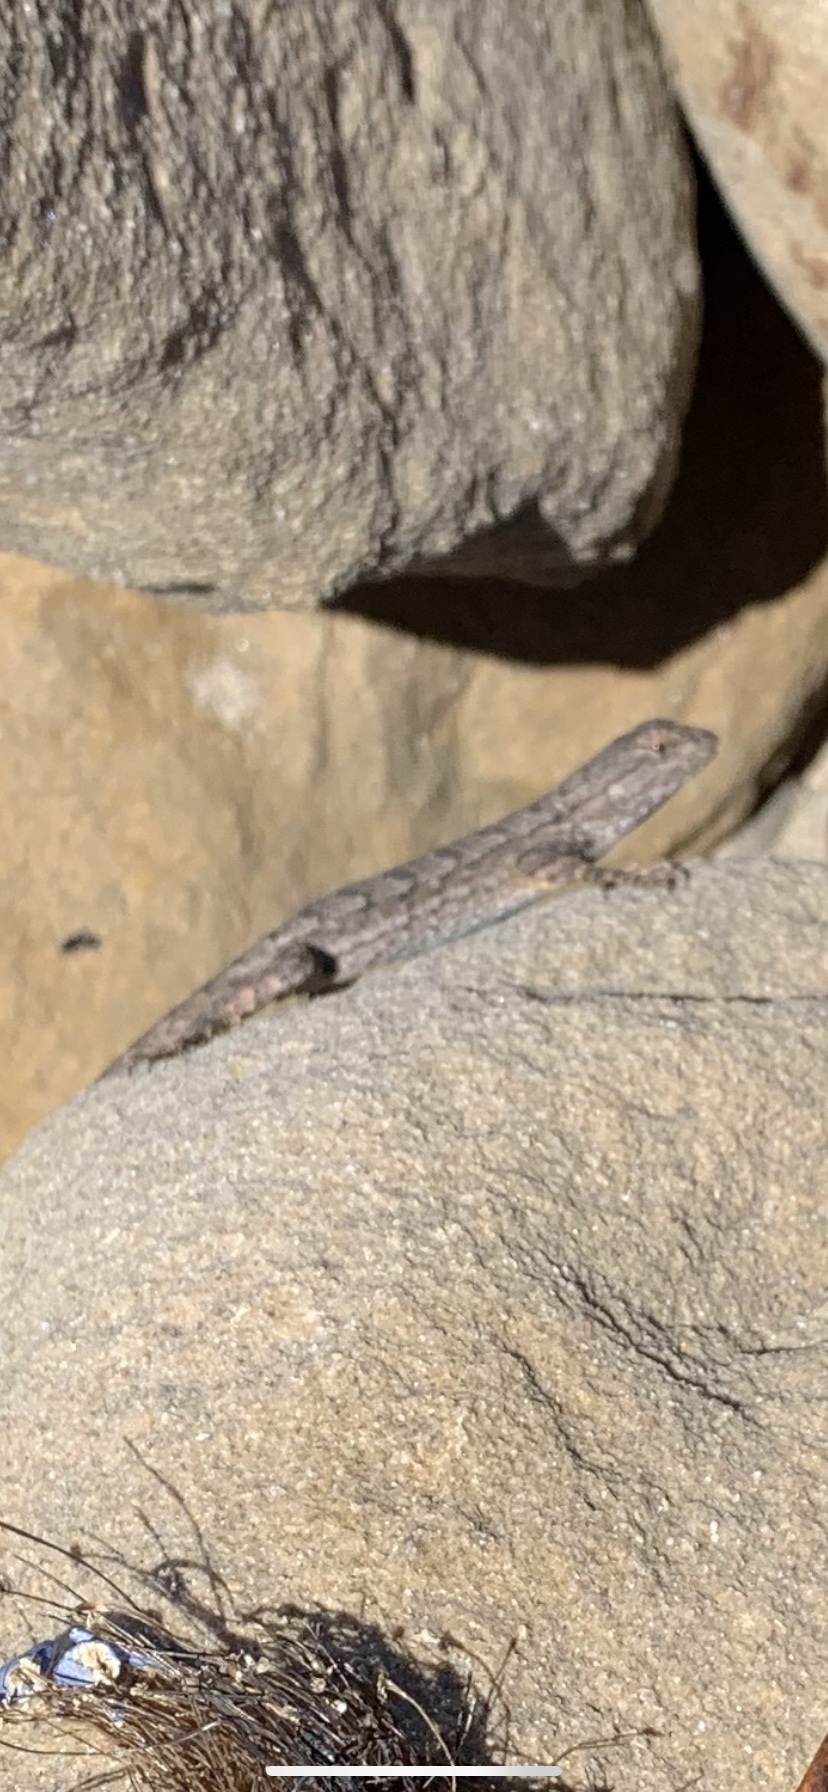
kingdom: Animalia
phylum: Chordata
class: Squamata
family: Phrynosomatidae
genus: Sceloporus
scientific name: Sceloporus occidentalis
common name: Western fence lizard
